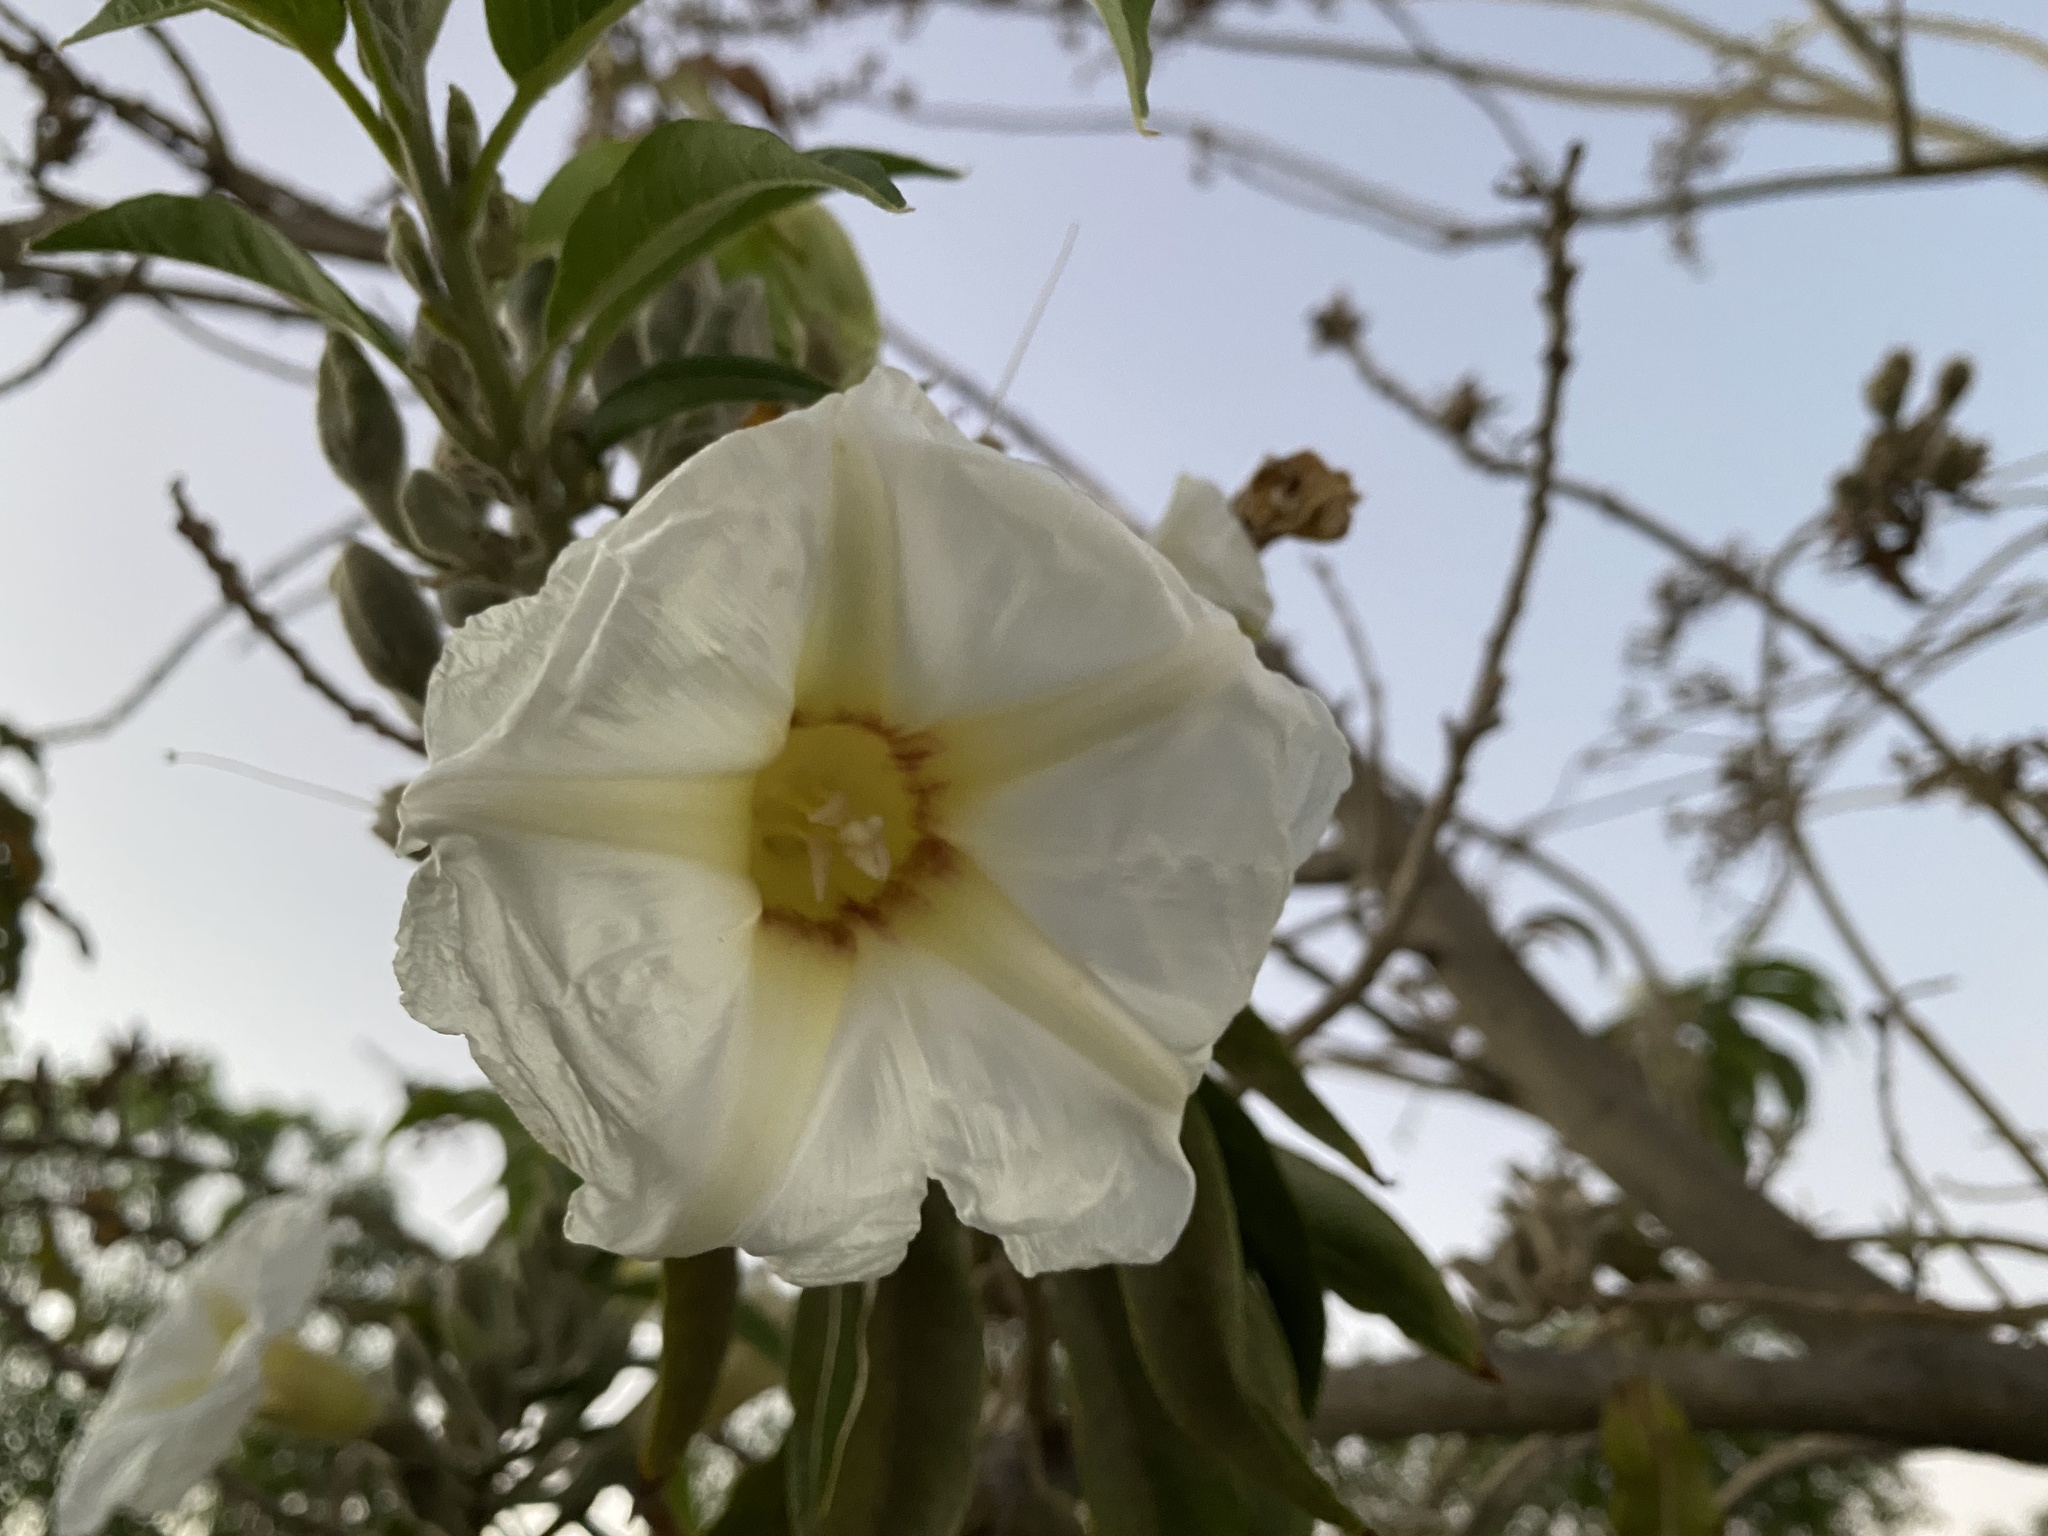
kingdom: Plantae
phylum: Tracheophyta
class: Magnoliopsida
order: Solanales
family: Convolvulaceae
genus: Ipomoea
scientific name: Ipomoea murucoides
